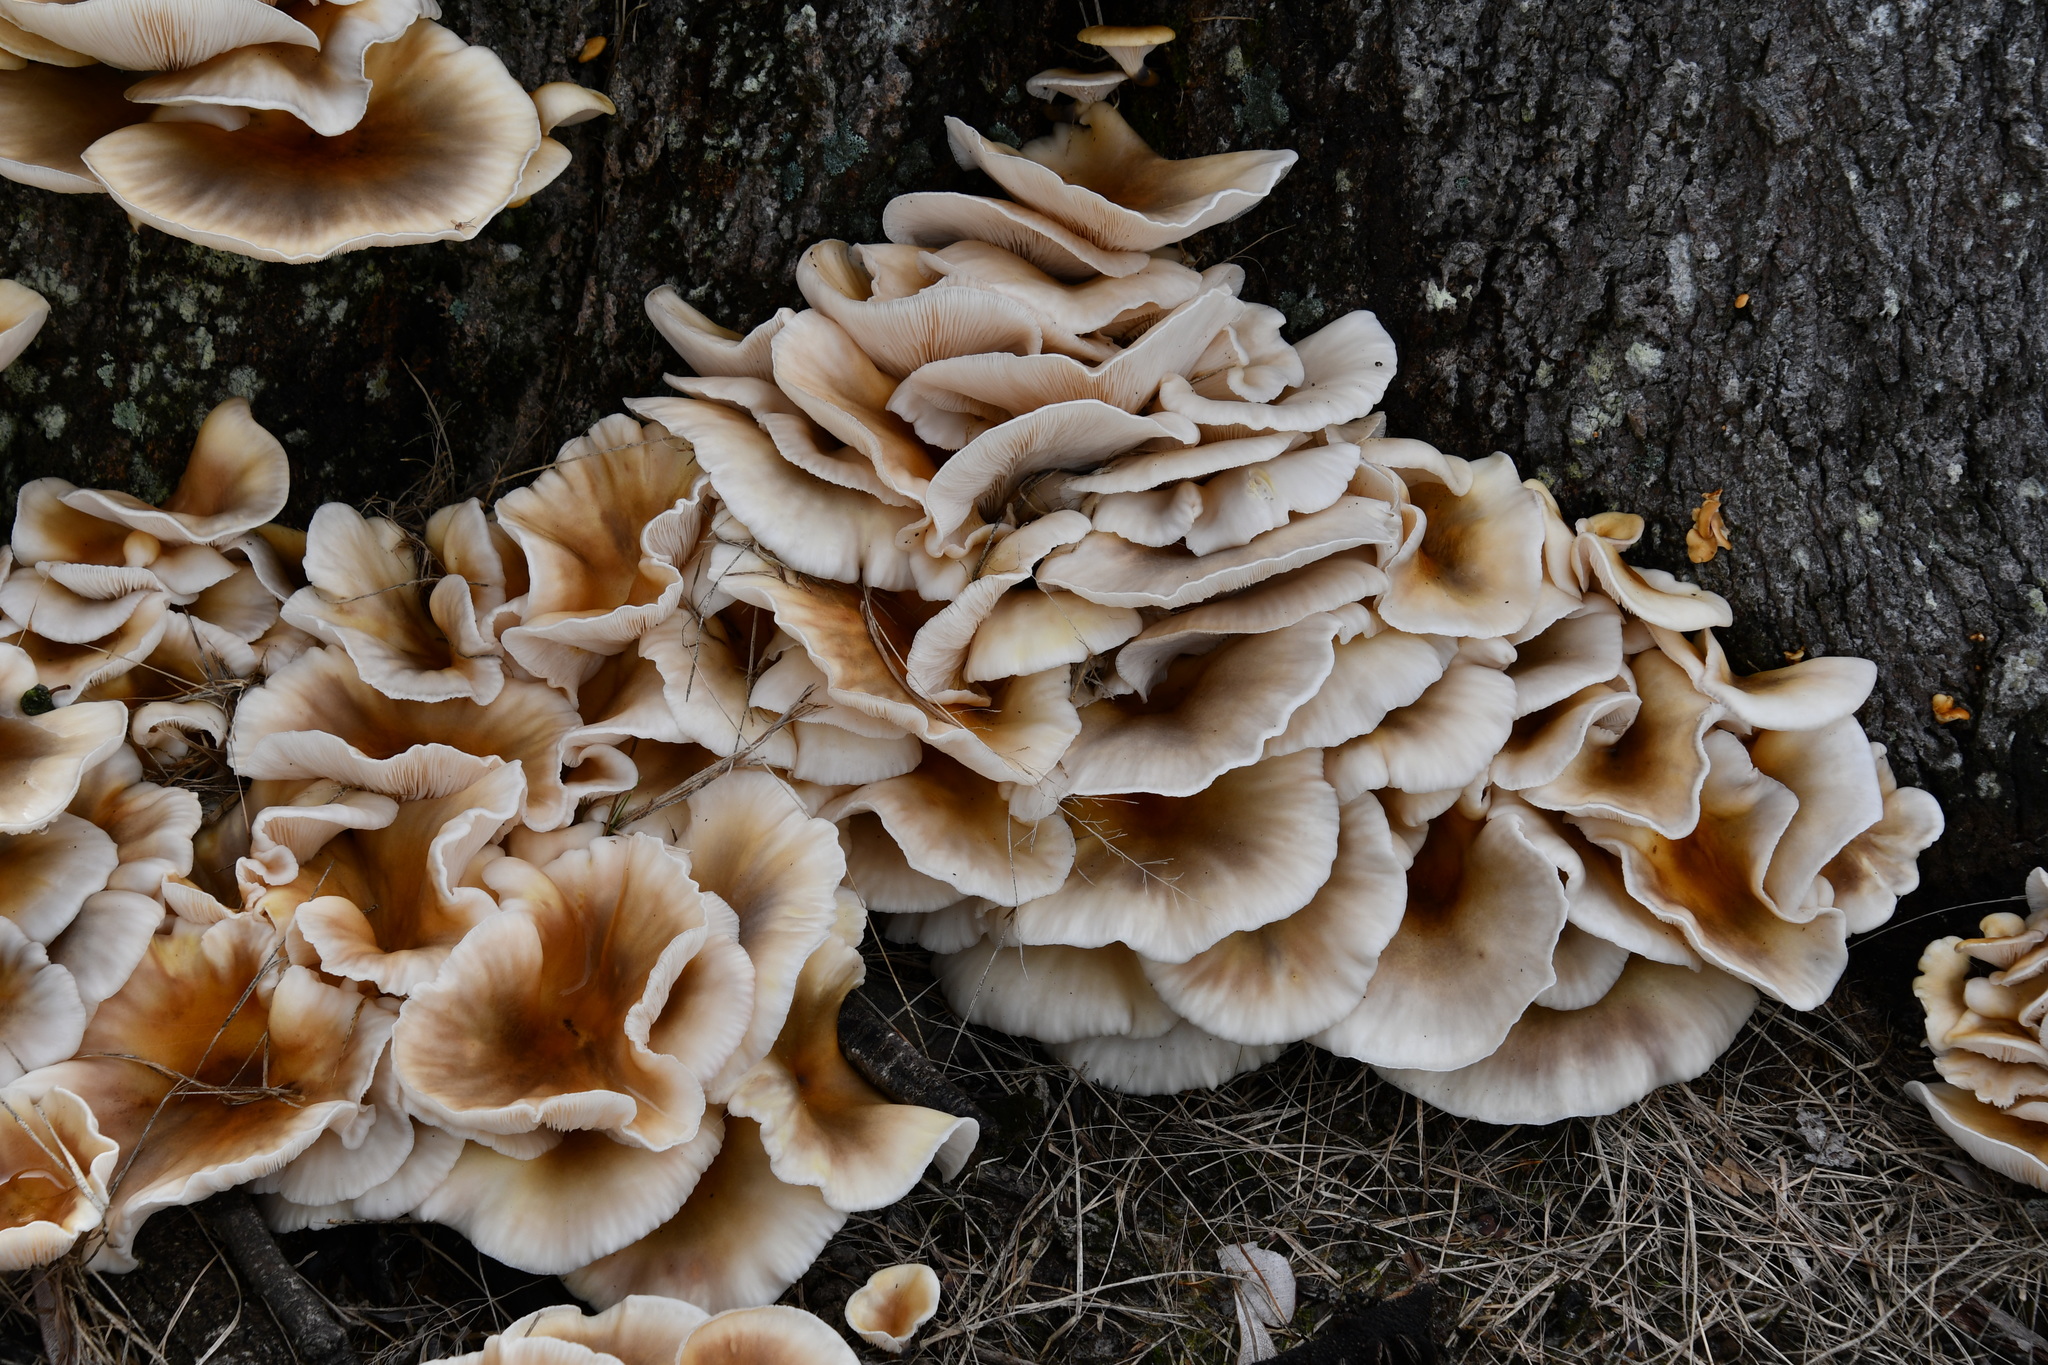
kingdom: Fungi
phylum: Basidiomycota
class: Agaricomycetes
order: Agaricales
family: Omphalotaceae
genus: Omphalotus
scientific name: Omphalotus nidiformis
